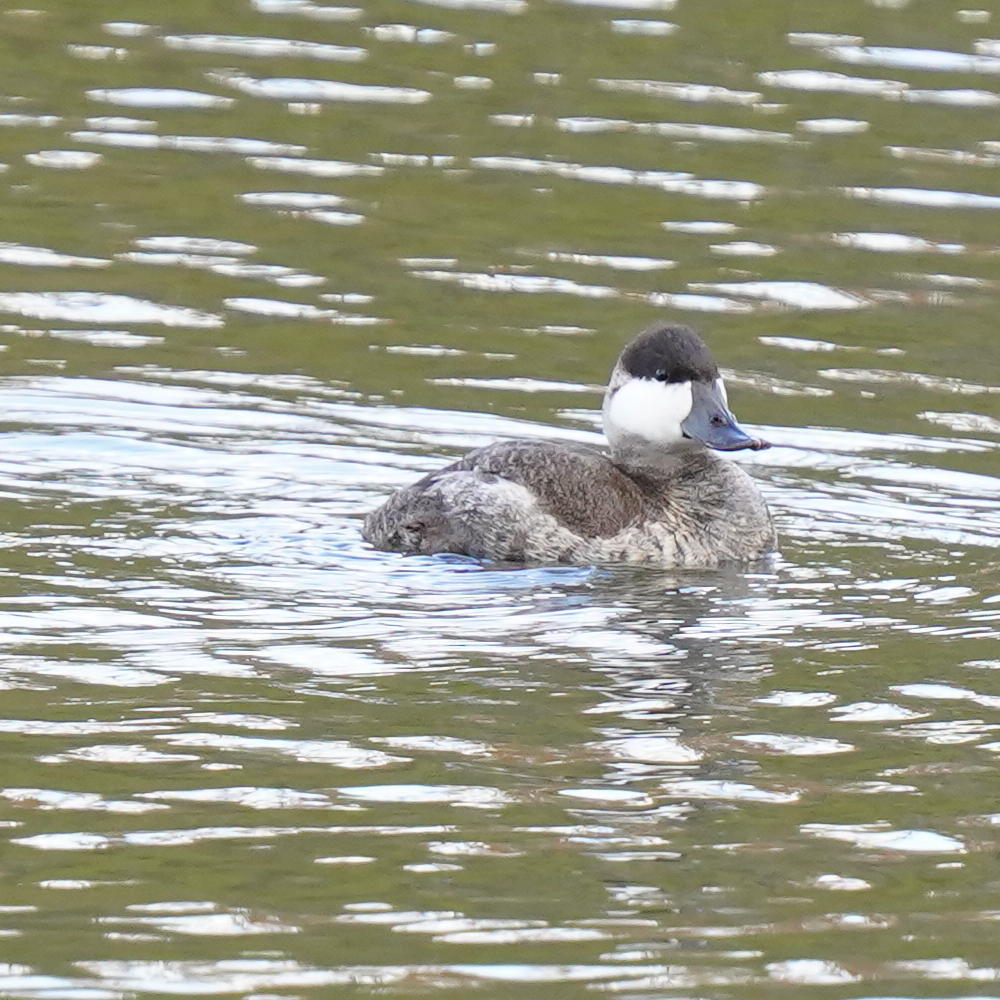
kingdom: Animalia
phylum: Chordata
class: Aves
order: Anseriformes
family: Anatidae
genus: Oxyura
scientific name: Oxyura jamaicensis
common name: Ruddy duck
